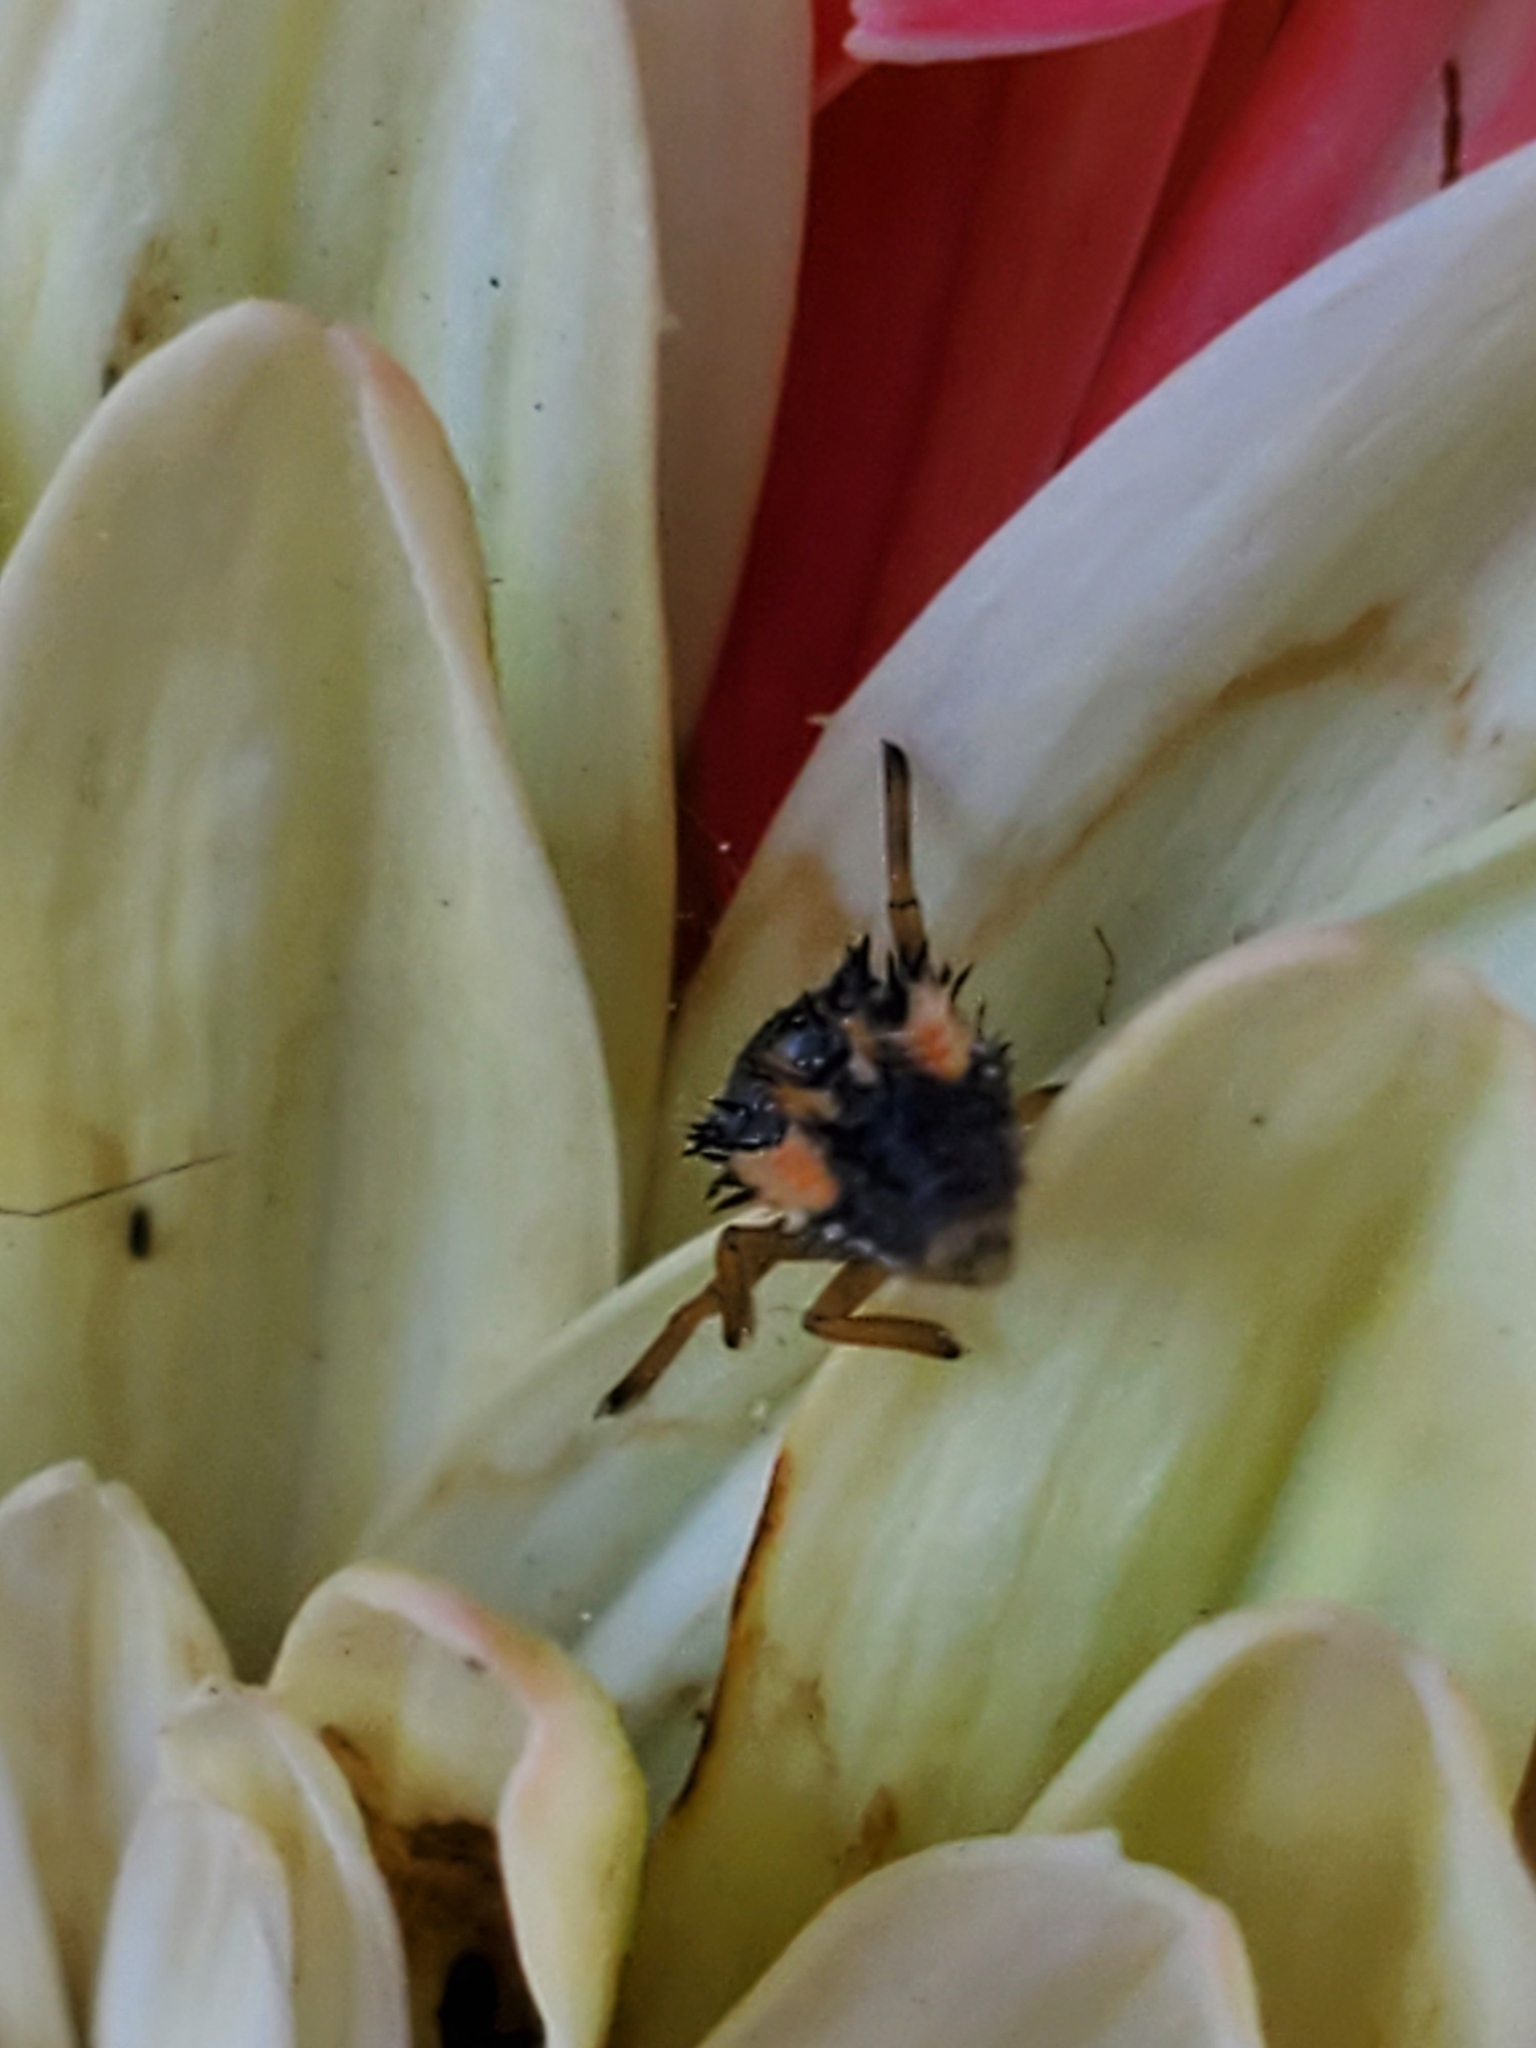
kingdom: Animalia
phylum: Arthropoda
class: Insecta
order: Coleoptera
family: Coccinellidae
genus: Harmonia
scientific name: Harmonia axyridis
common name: Harlequin ladybird
